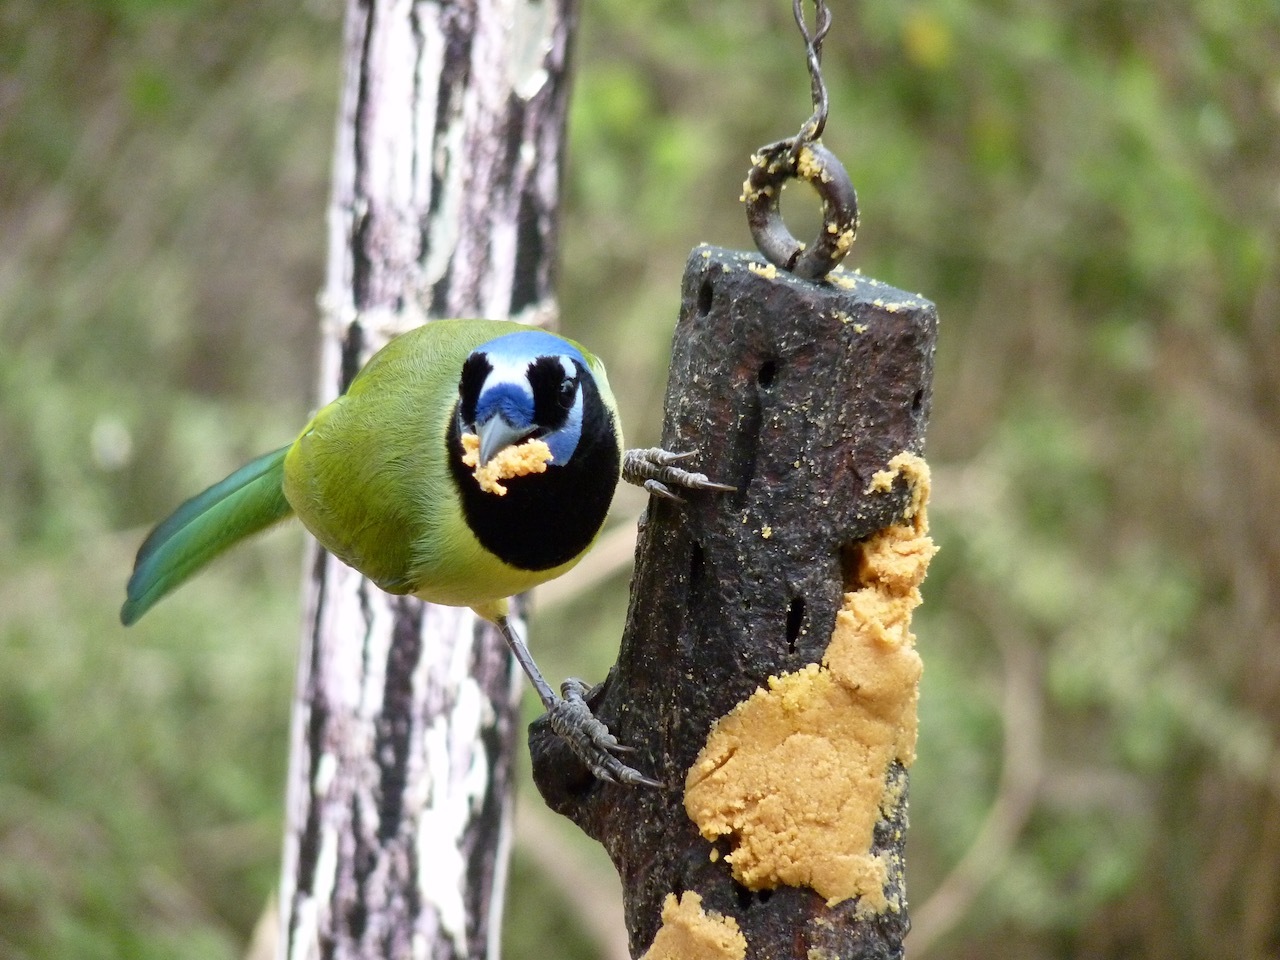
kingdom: Animalia
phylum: Chordata
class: Aves
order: Passeriformes
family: Corvidae
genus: Cyanocorax
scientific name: Cyanocorax yncas
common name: Green jay
